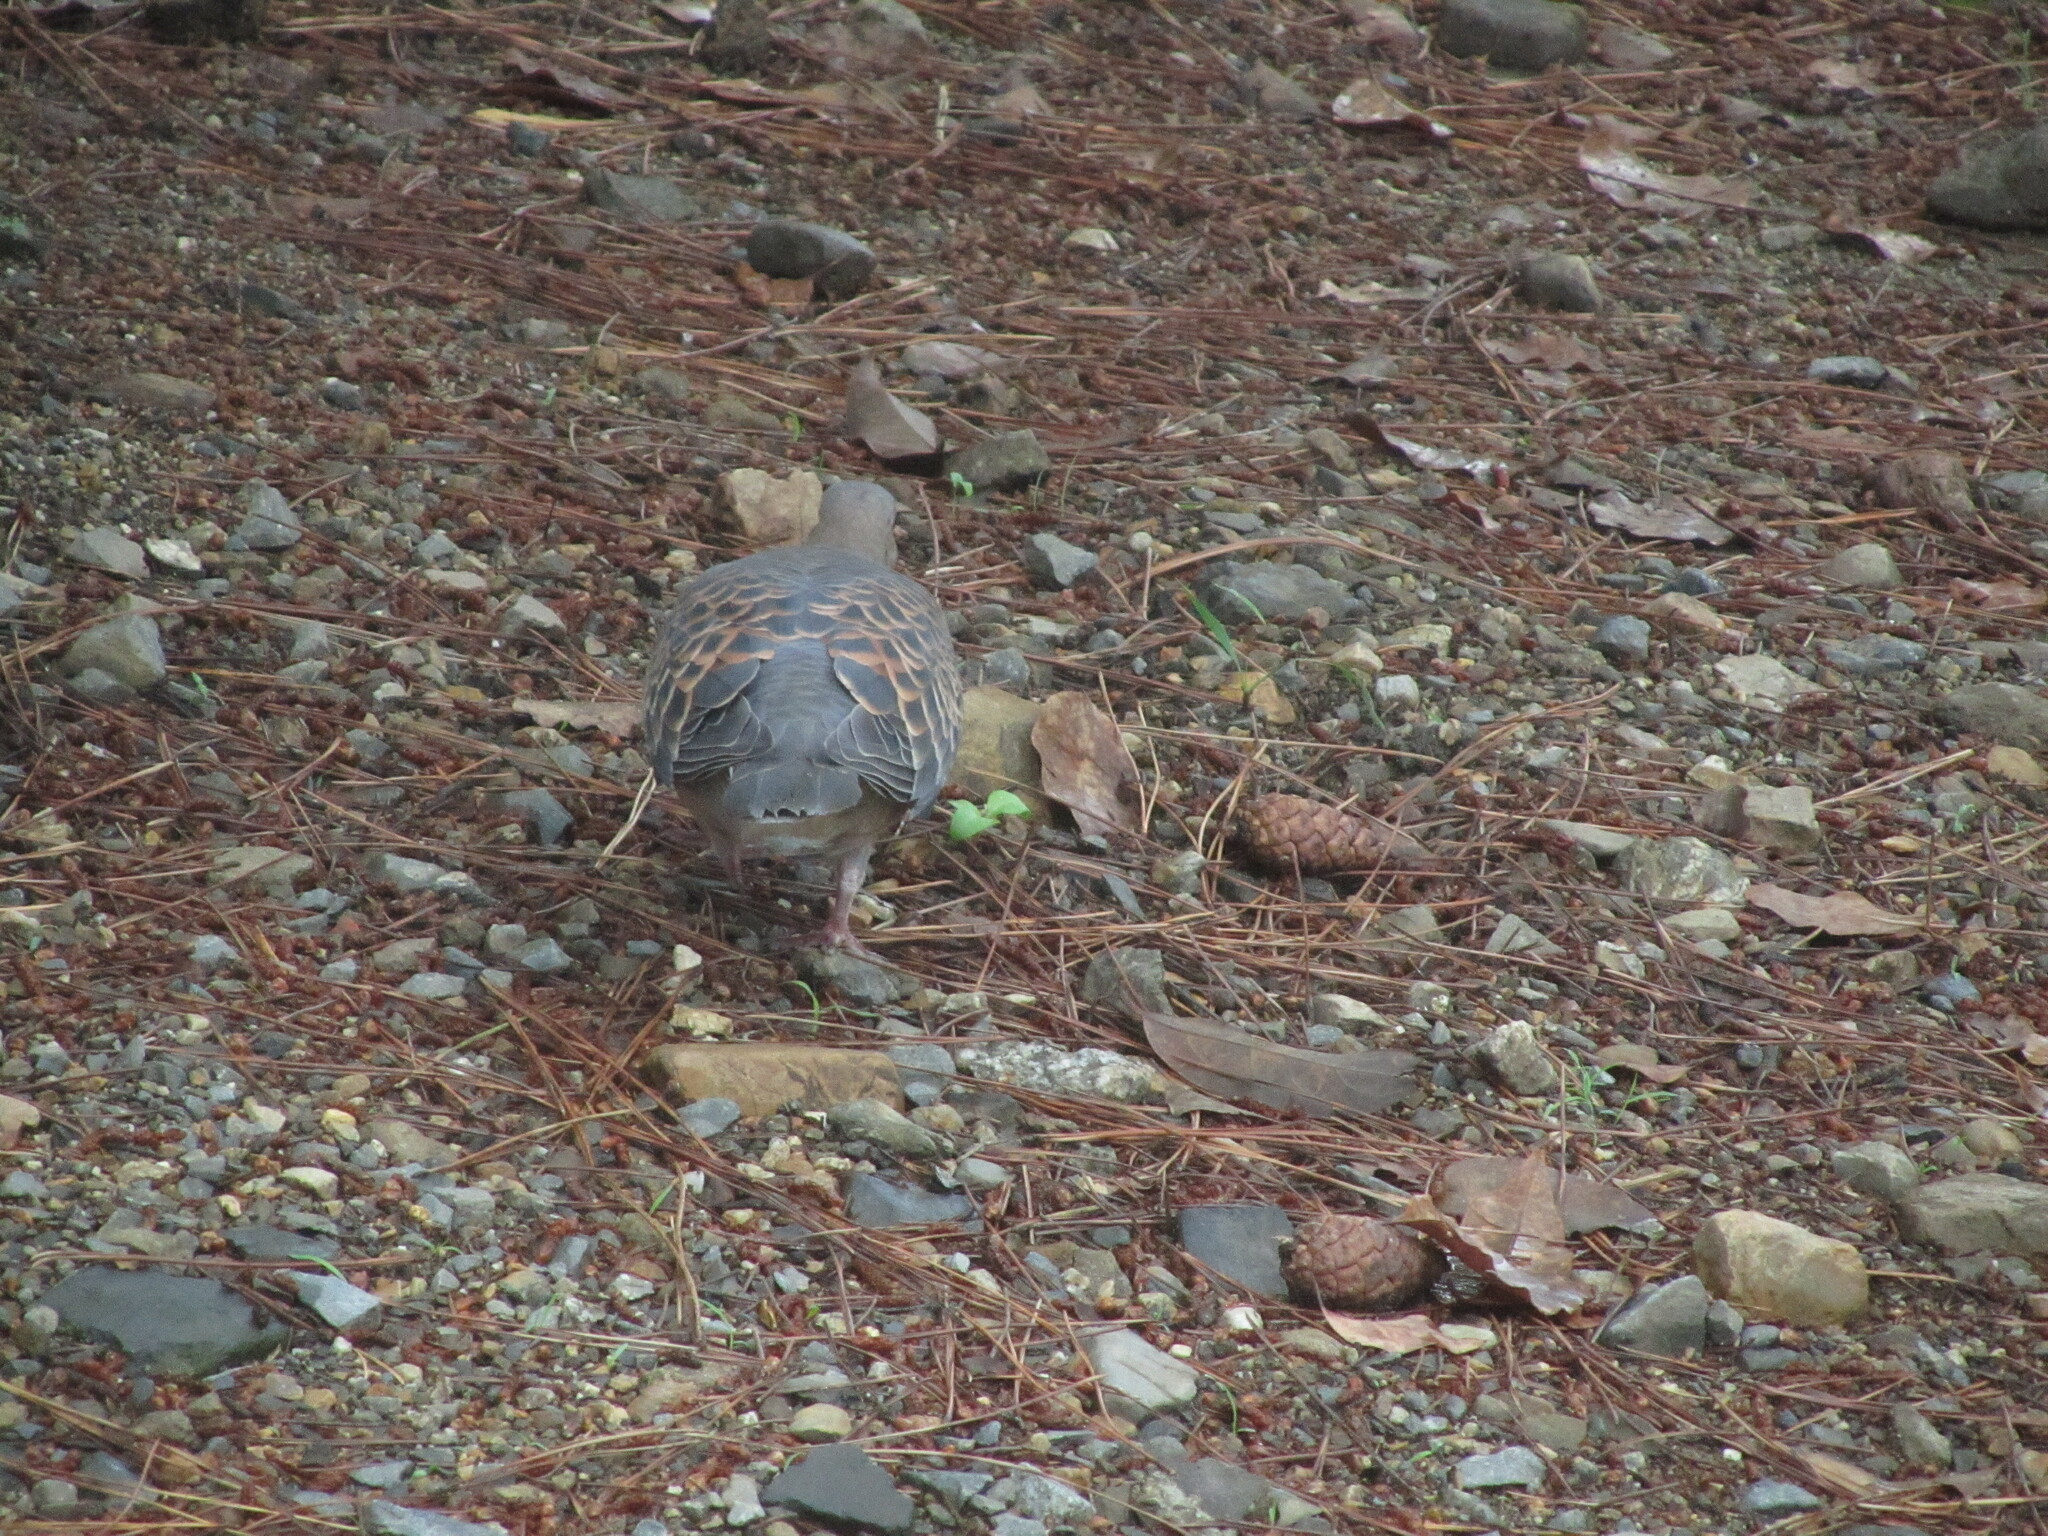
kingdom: Animalia
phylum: Chordata
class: Aves
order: Columbiformes
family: Columbidae
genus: Streptopelia
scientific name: Streptopelia orientalis
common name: Oriental turtle dove
